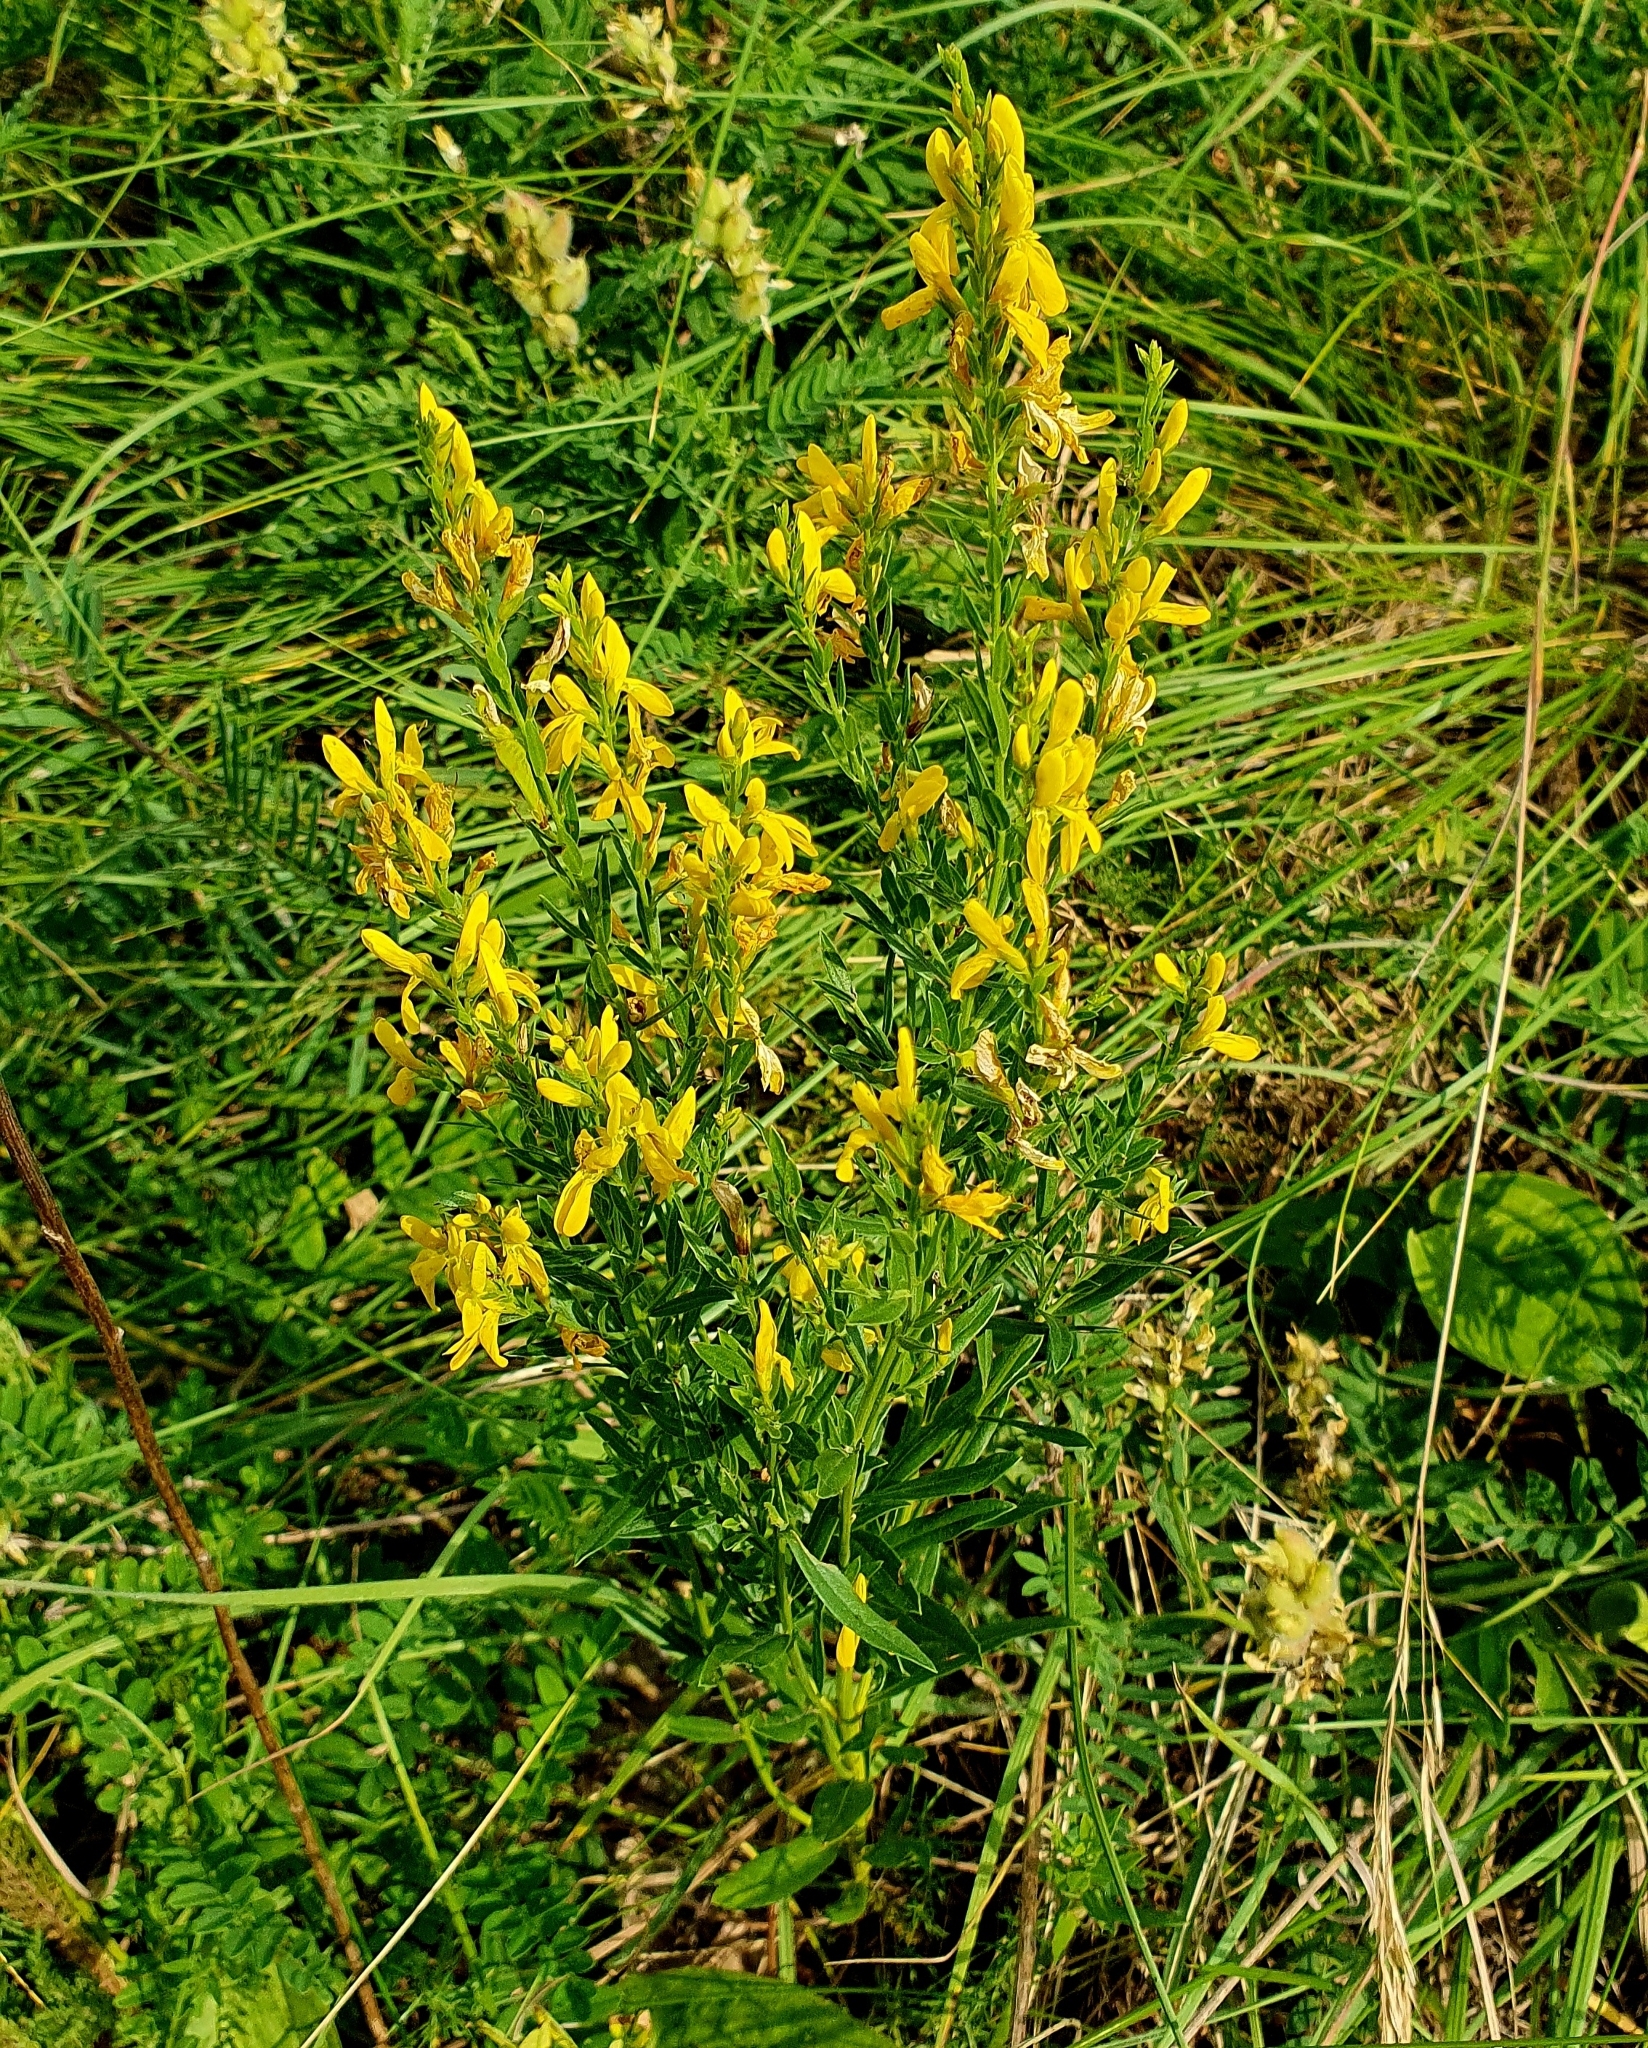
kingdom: Plantae
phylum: Tracheophyta
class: Magnoliopsida
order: Fabales
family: Fabaceae
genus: Genista
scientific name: Genista tinctoria
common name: Dyer's greenweed
